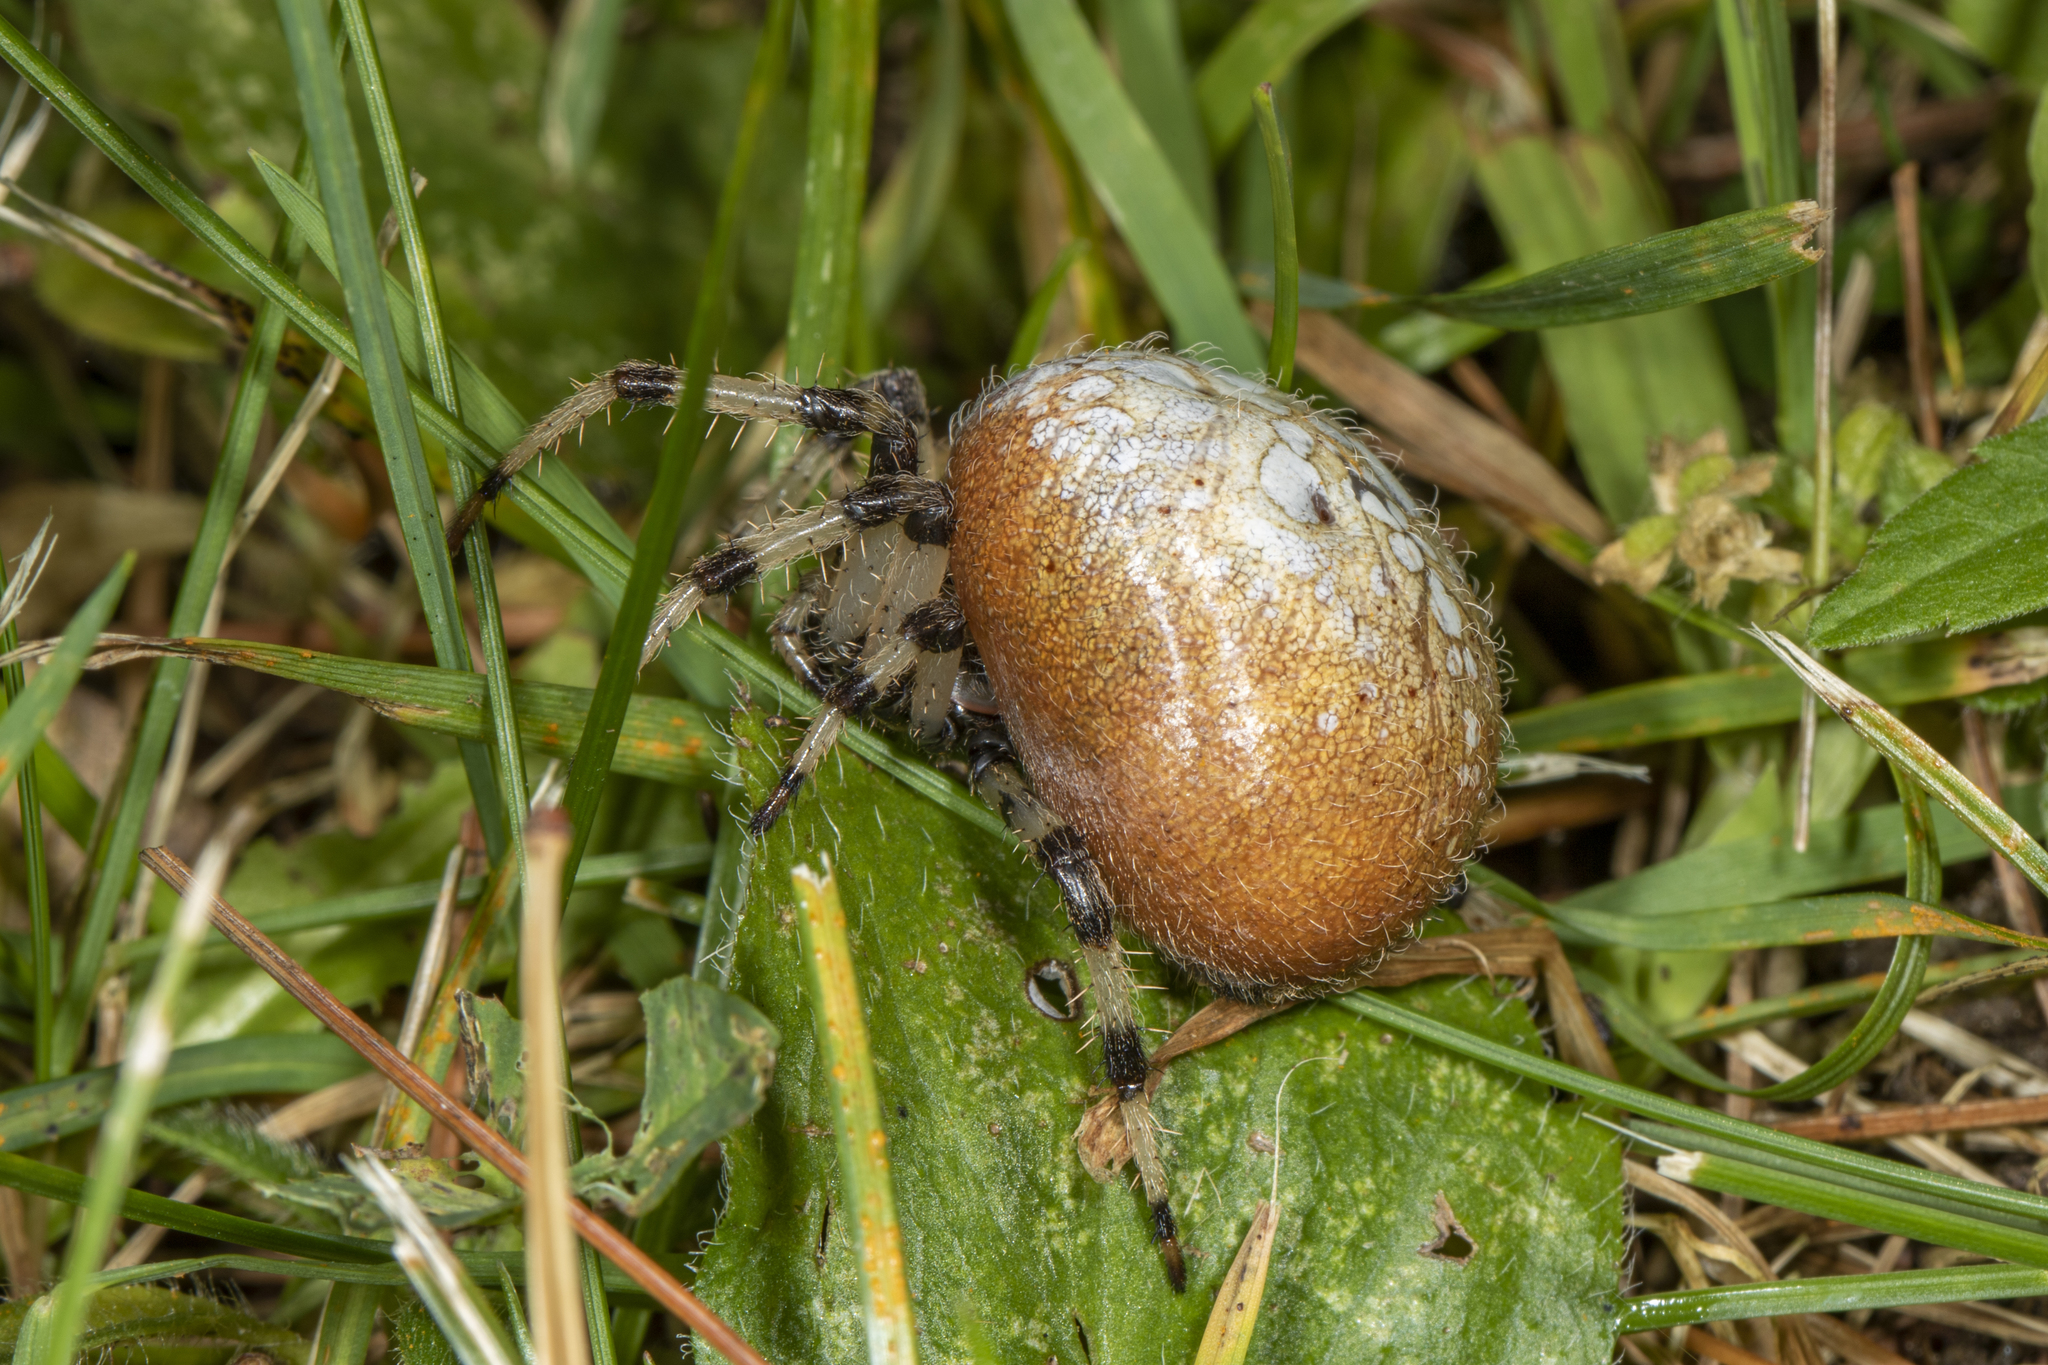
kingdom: Animalia
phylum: Arthropoda
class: Arachnida
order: Araneae
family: Araneidae
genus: Araneus
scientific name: Araneus trifolium
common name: Shamrock orbweaver
